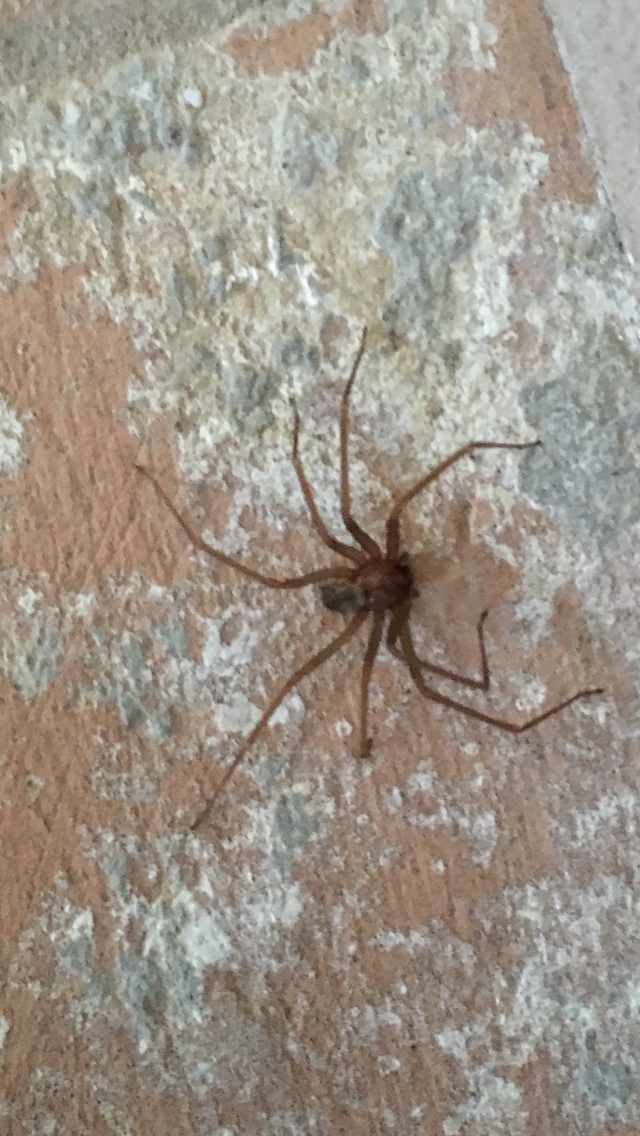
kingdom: Animalia
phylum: Arthropoda
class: Arachnida
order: Araneae
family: Sicariidae
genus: Loxosceles
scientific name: Loxosceles rufescens
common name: Mediterranean recluse spider
